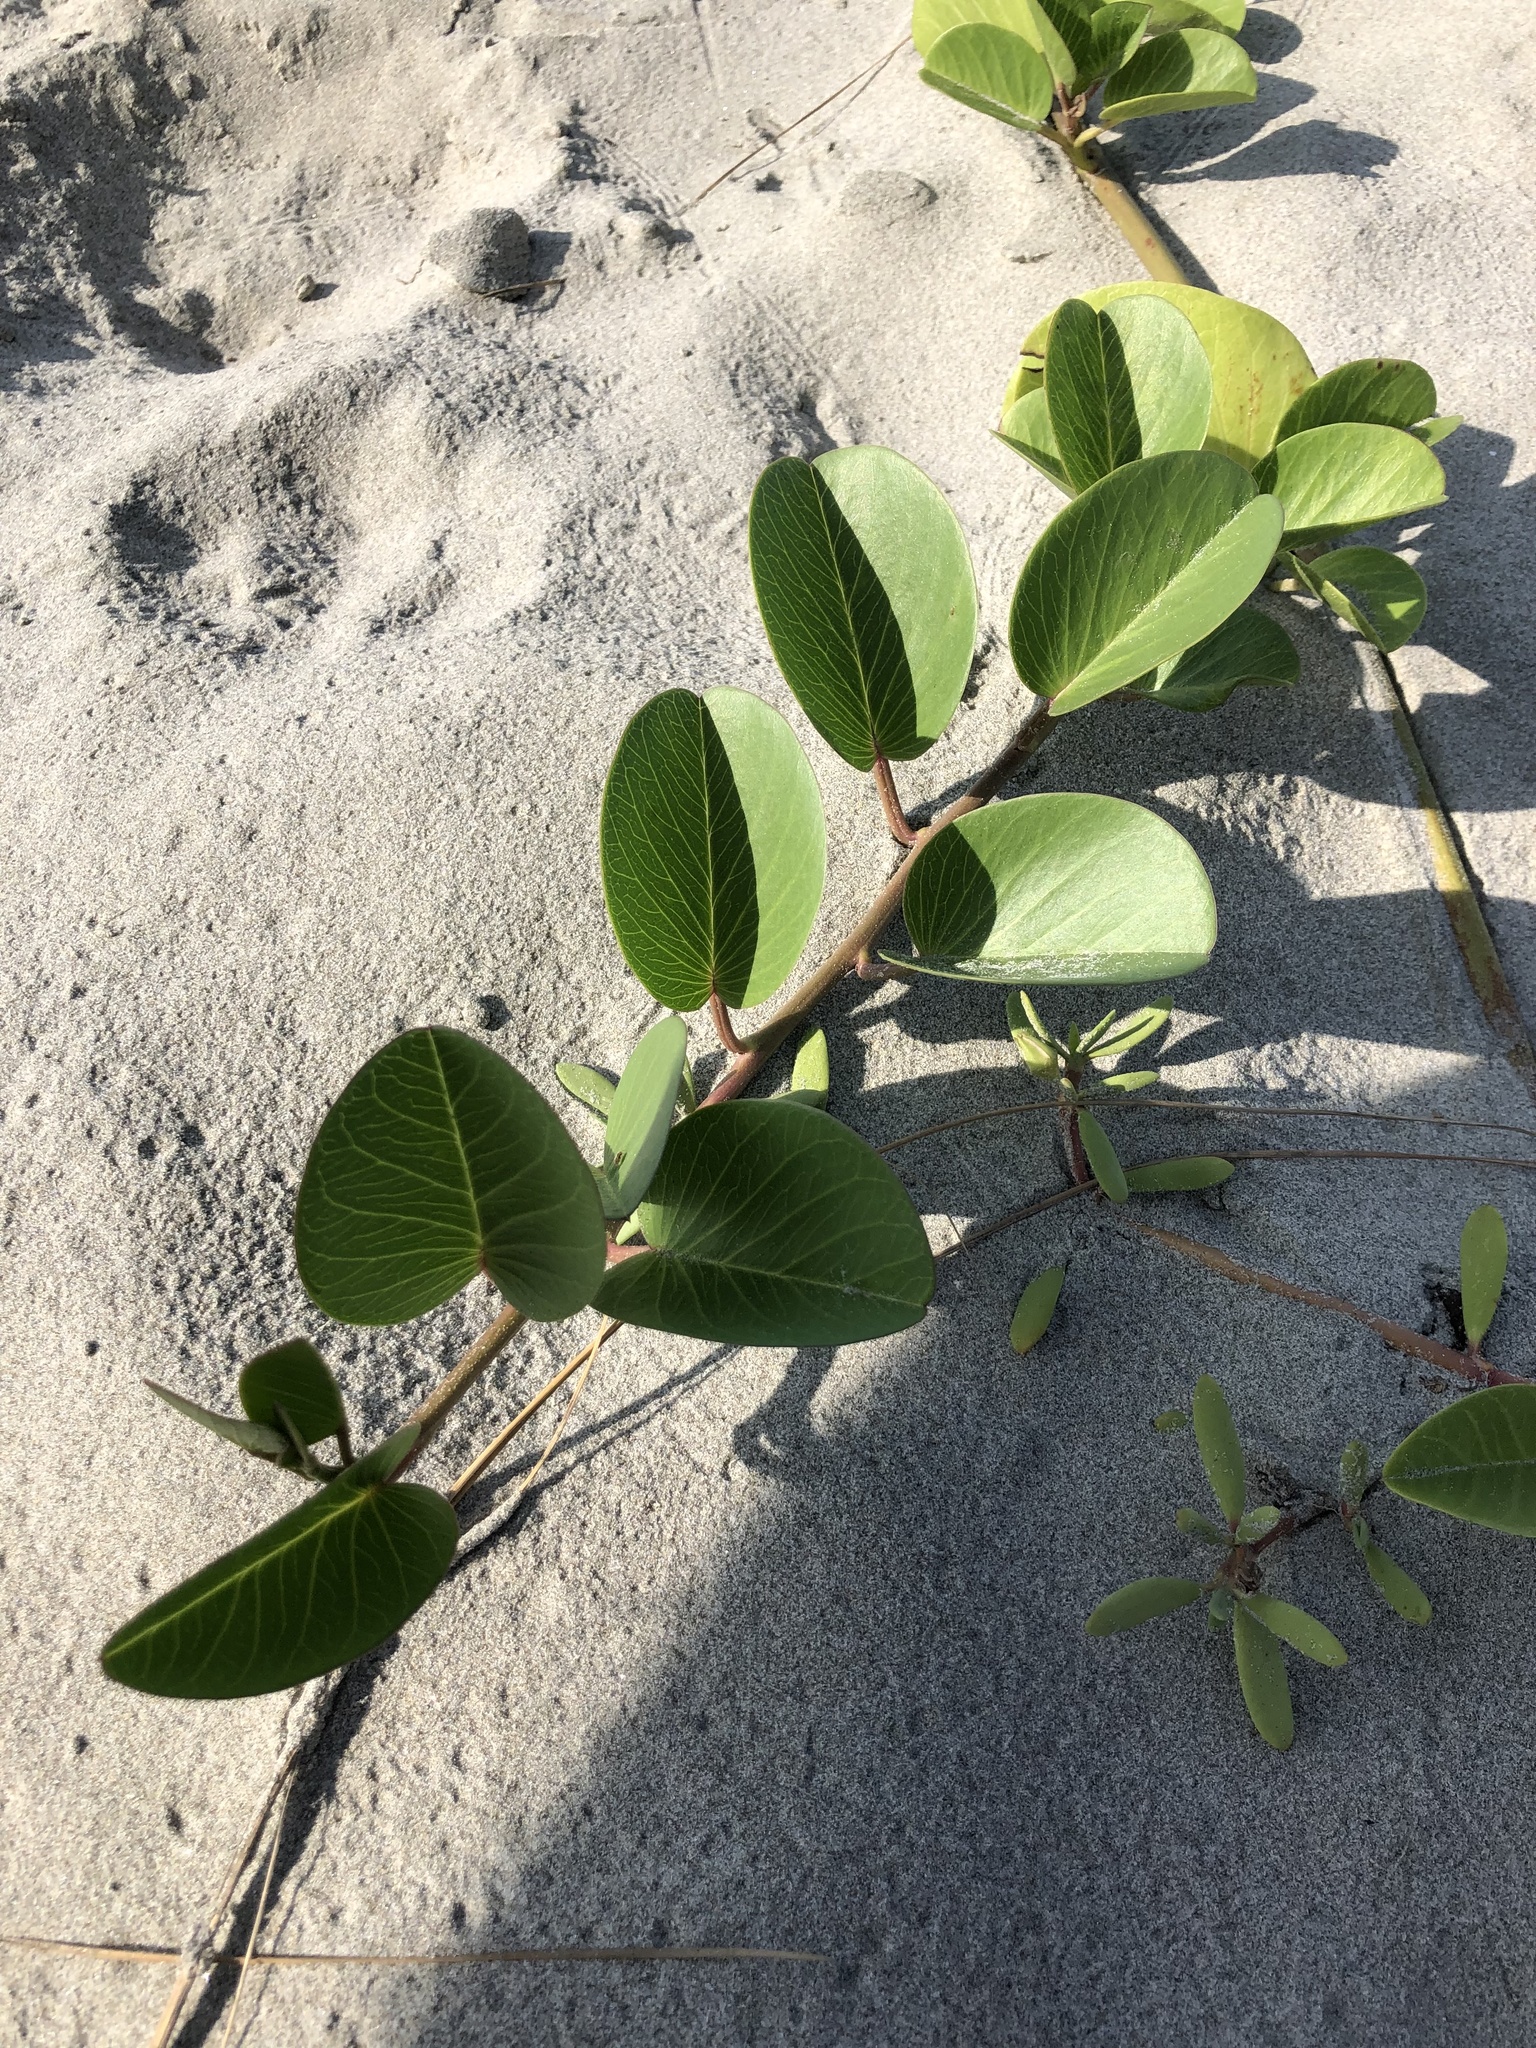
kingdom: Plantae
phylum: Tracheophyta
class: Magnoliopsida
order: Solanales
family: Convolvulaceae
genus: Ipomoea
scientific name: Ipomoea pes-caprae
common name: Beach morning glory
